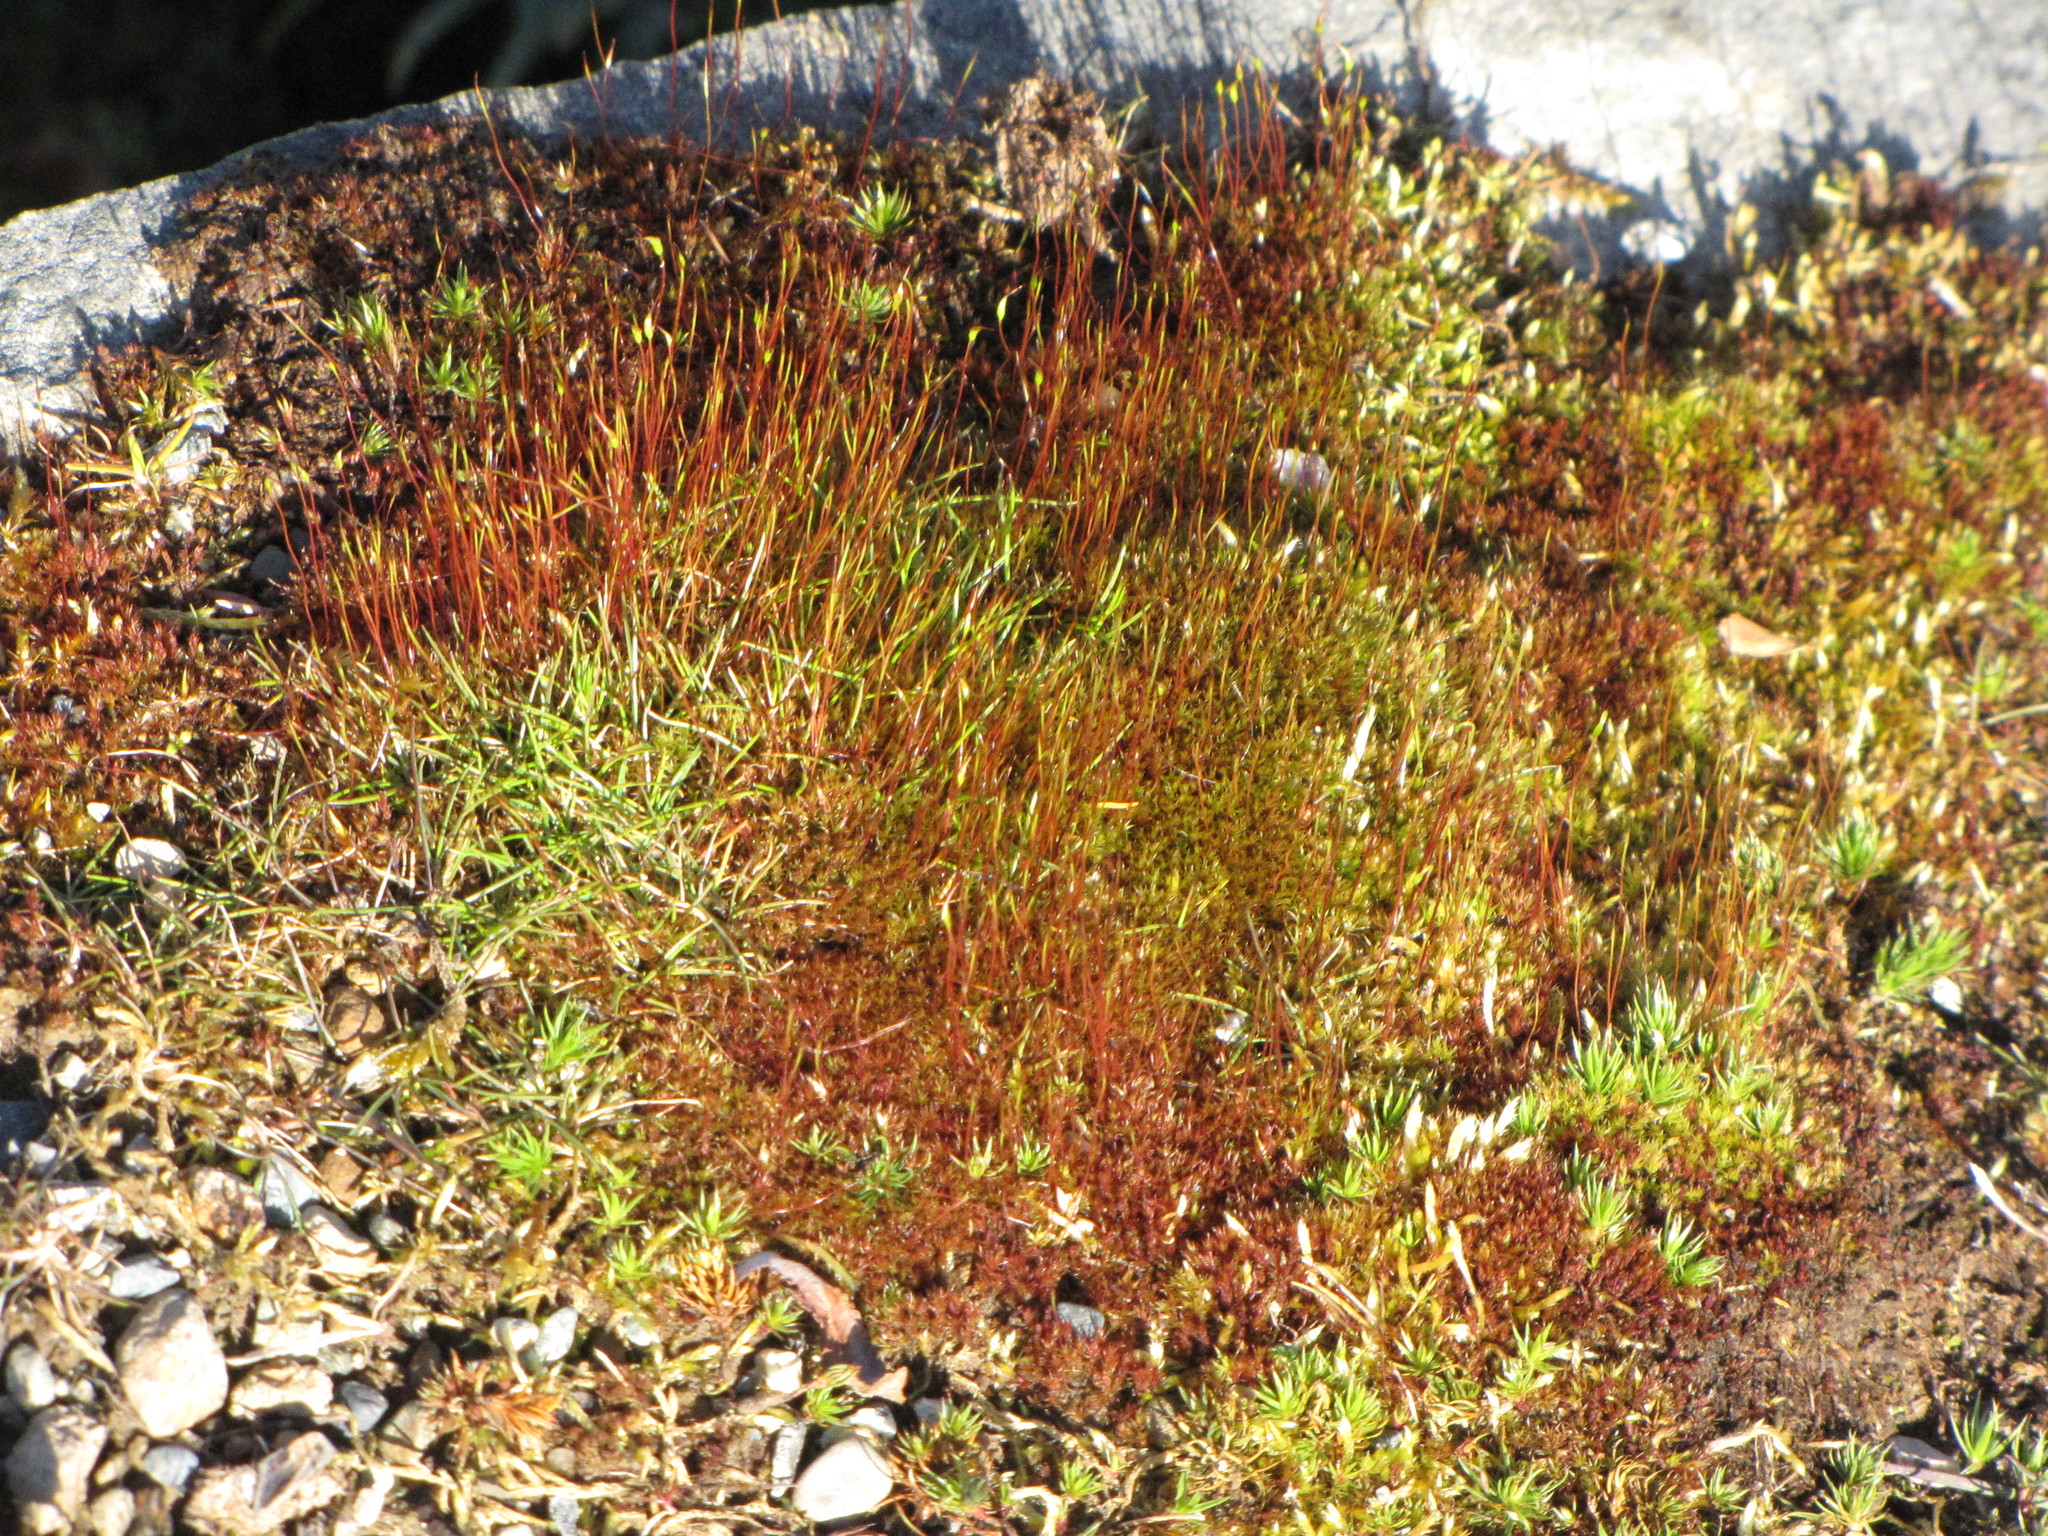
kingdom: Plantae
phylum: Bryophyta
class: Bryopsida
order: Dicranales
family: Ditrichaceae
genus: Ceratodon
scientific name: Ceratodon purpureus
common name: Redshank
